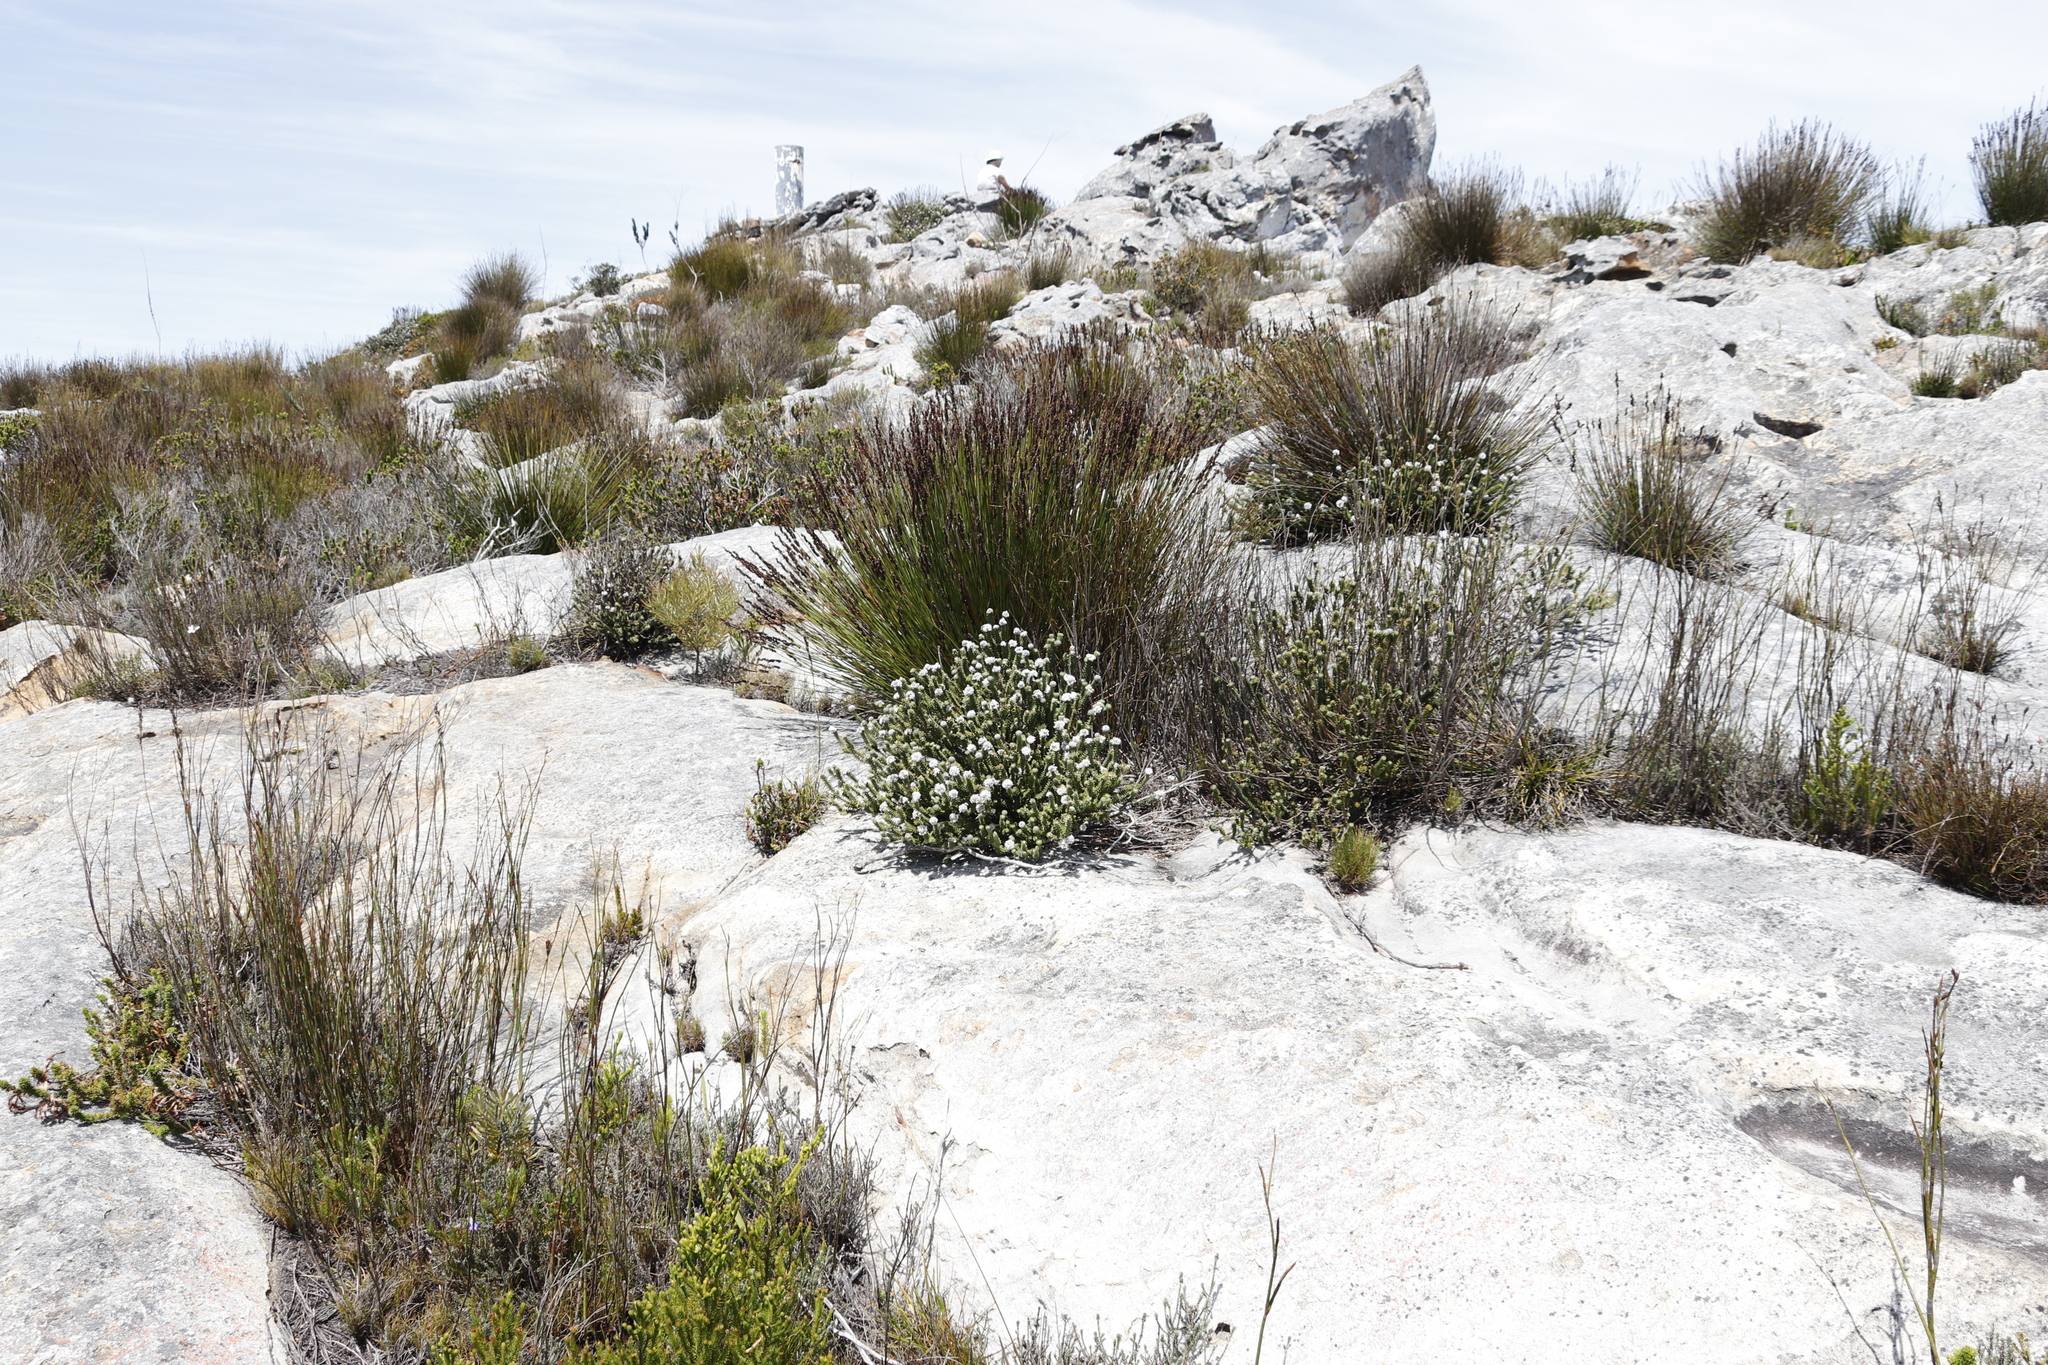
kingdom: Plantae
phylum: Tracheophyta
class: Magnoliopsida
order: Lamiales
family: Stilbaceae
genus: Kogelbergia
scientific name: Kogelbergia verticillata
